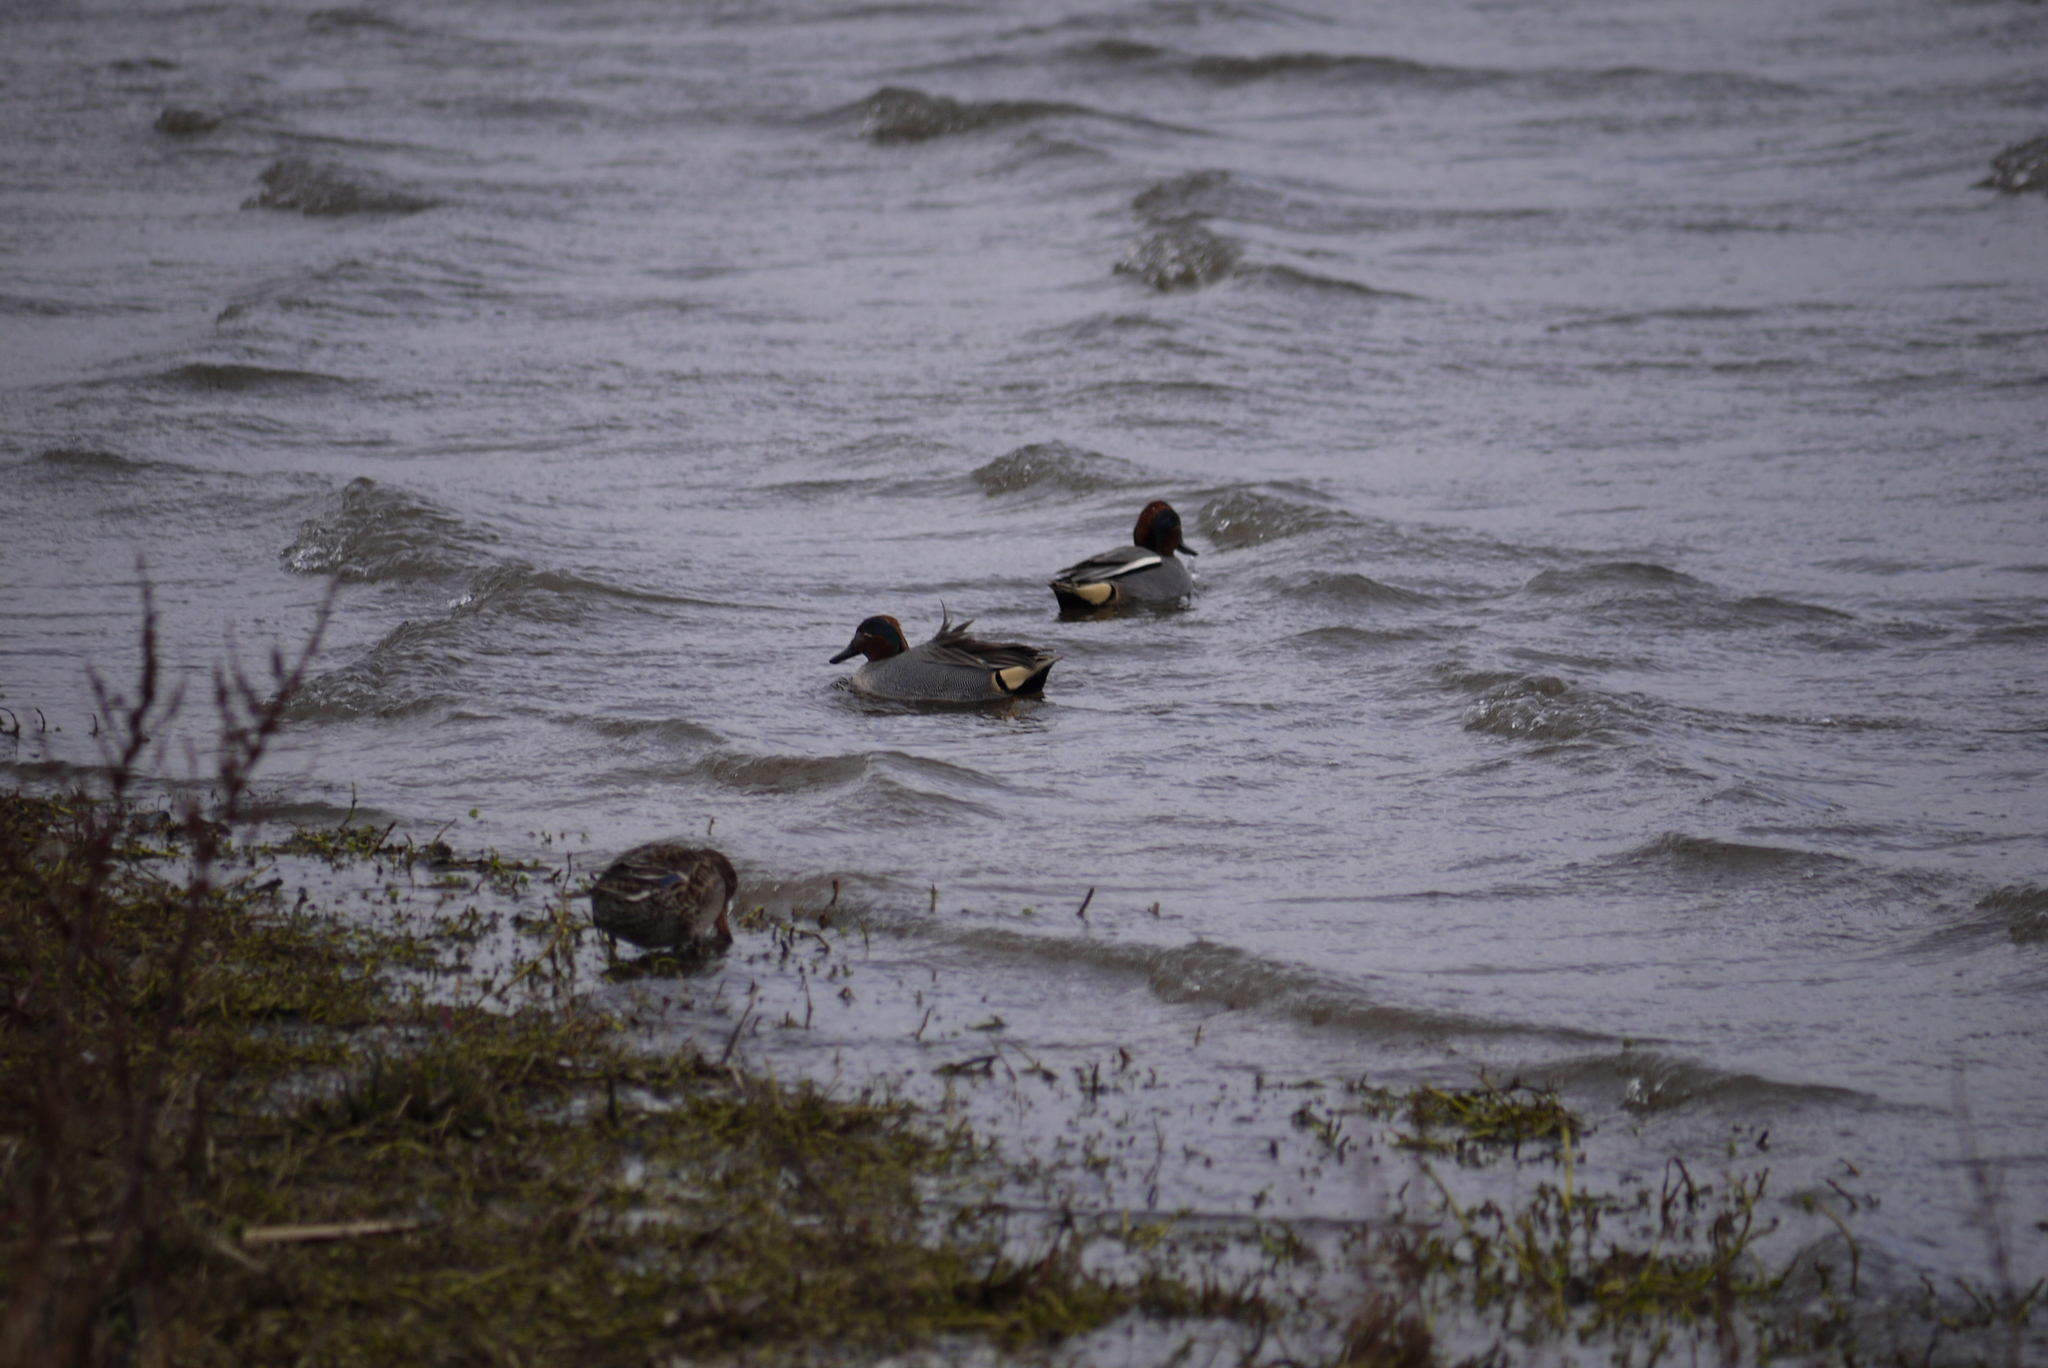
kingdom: Animalia
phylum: Chordata
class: Aves
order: Anseriformes
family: Anatidae
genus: Anas
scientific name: Anas crecca
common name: Eurasian teal
